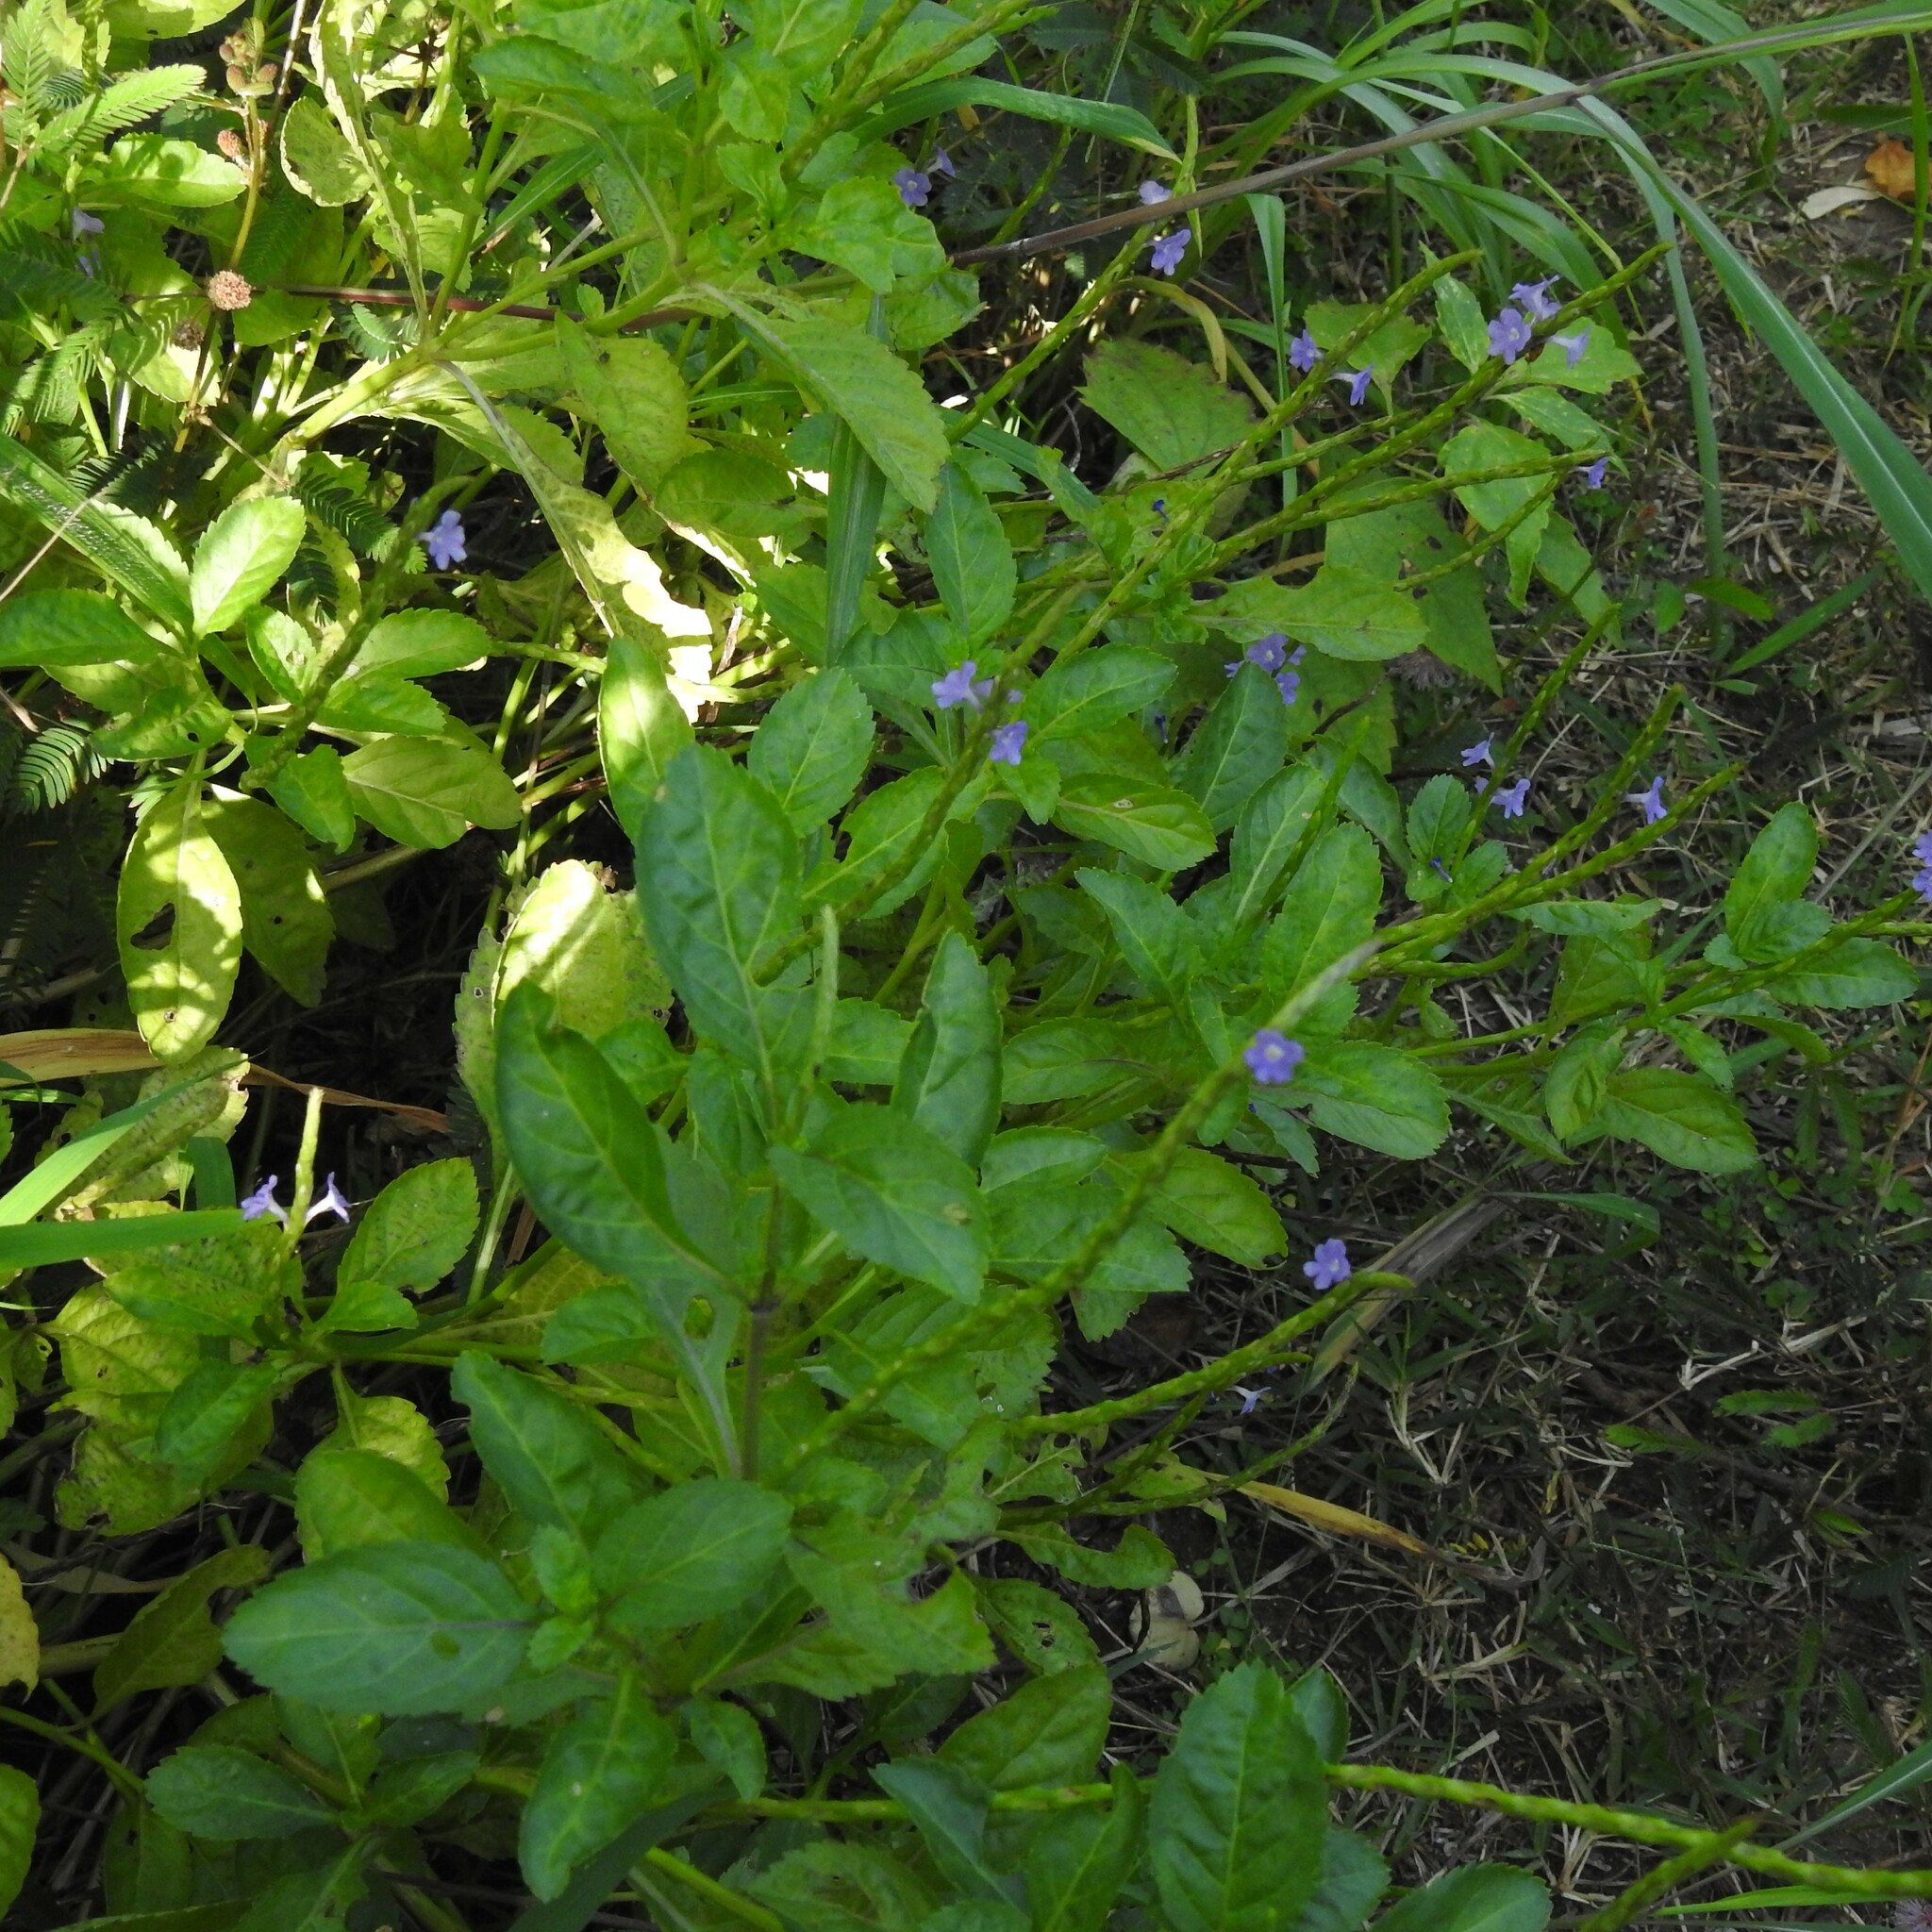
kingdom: Plantae
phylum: Tracheophyta
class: Magnoliopsida
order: Lamiales
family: Verbenaceae
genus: Stachytarpheta
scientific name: Stachytarpheta jamaicensis
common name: Light-blue snakeweed
